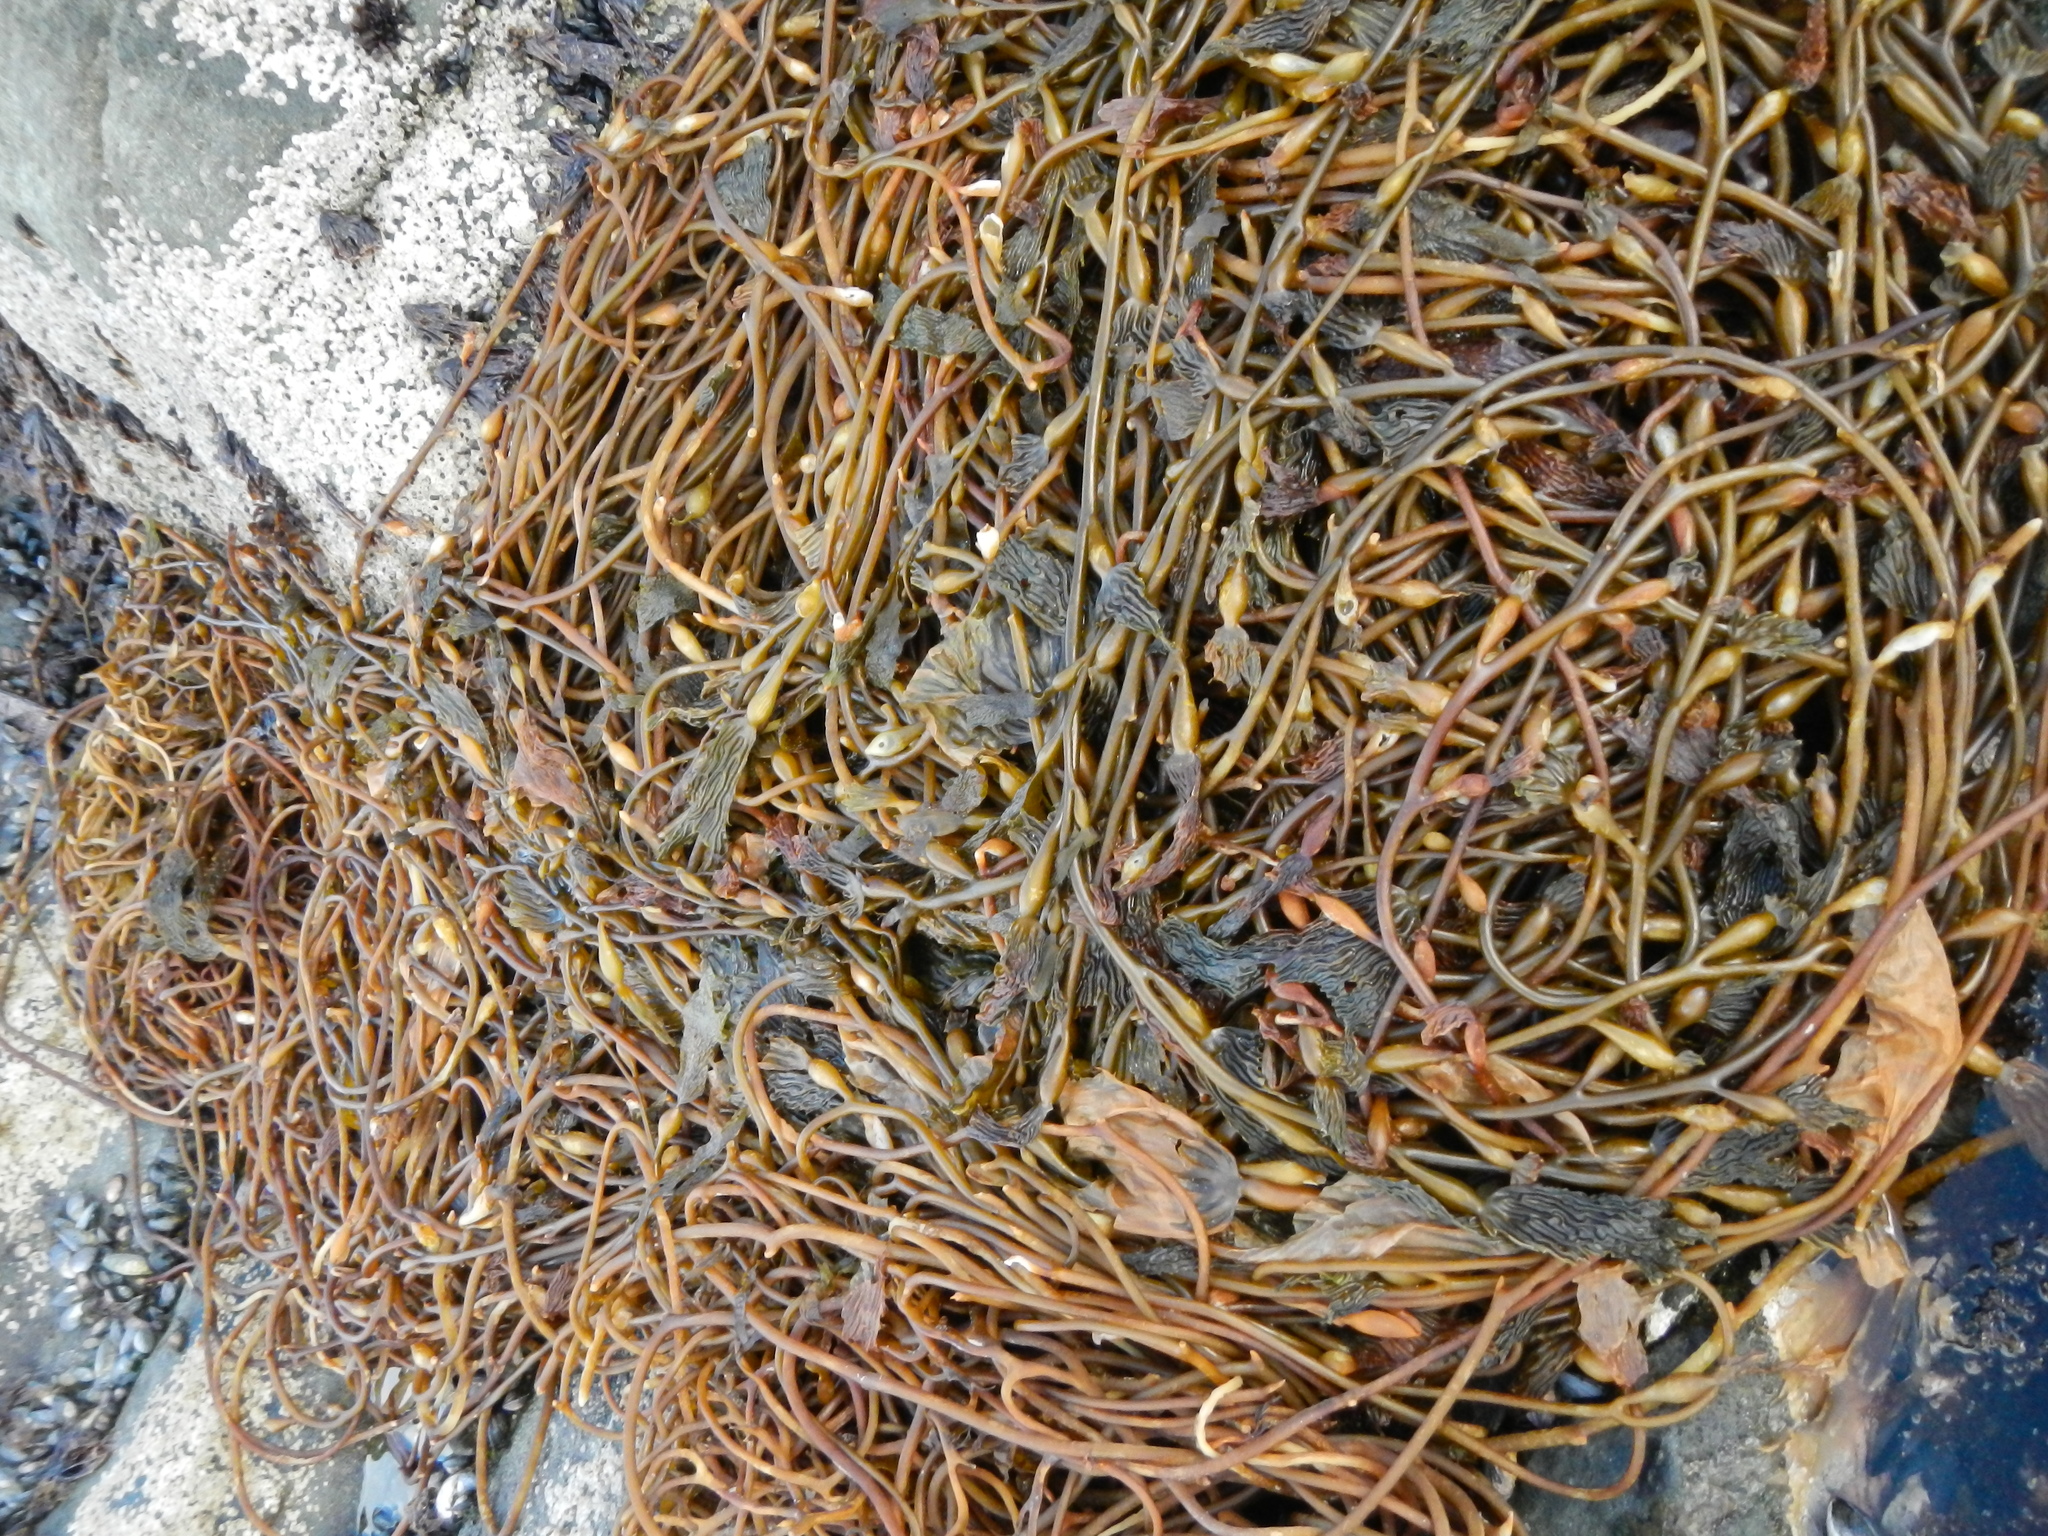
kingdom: Chromista
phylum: Ochrophyta
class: Phaeophyceae
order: Laminariales
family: Laminariaceae
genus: Macrocystis
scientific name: Macrocystis pyrifera
